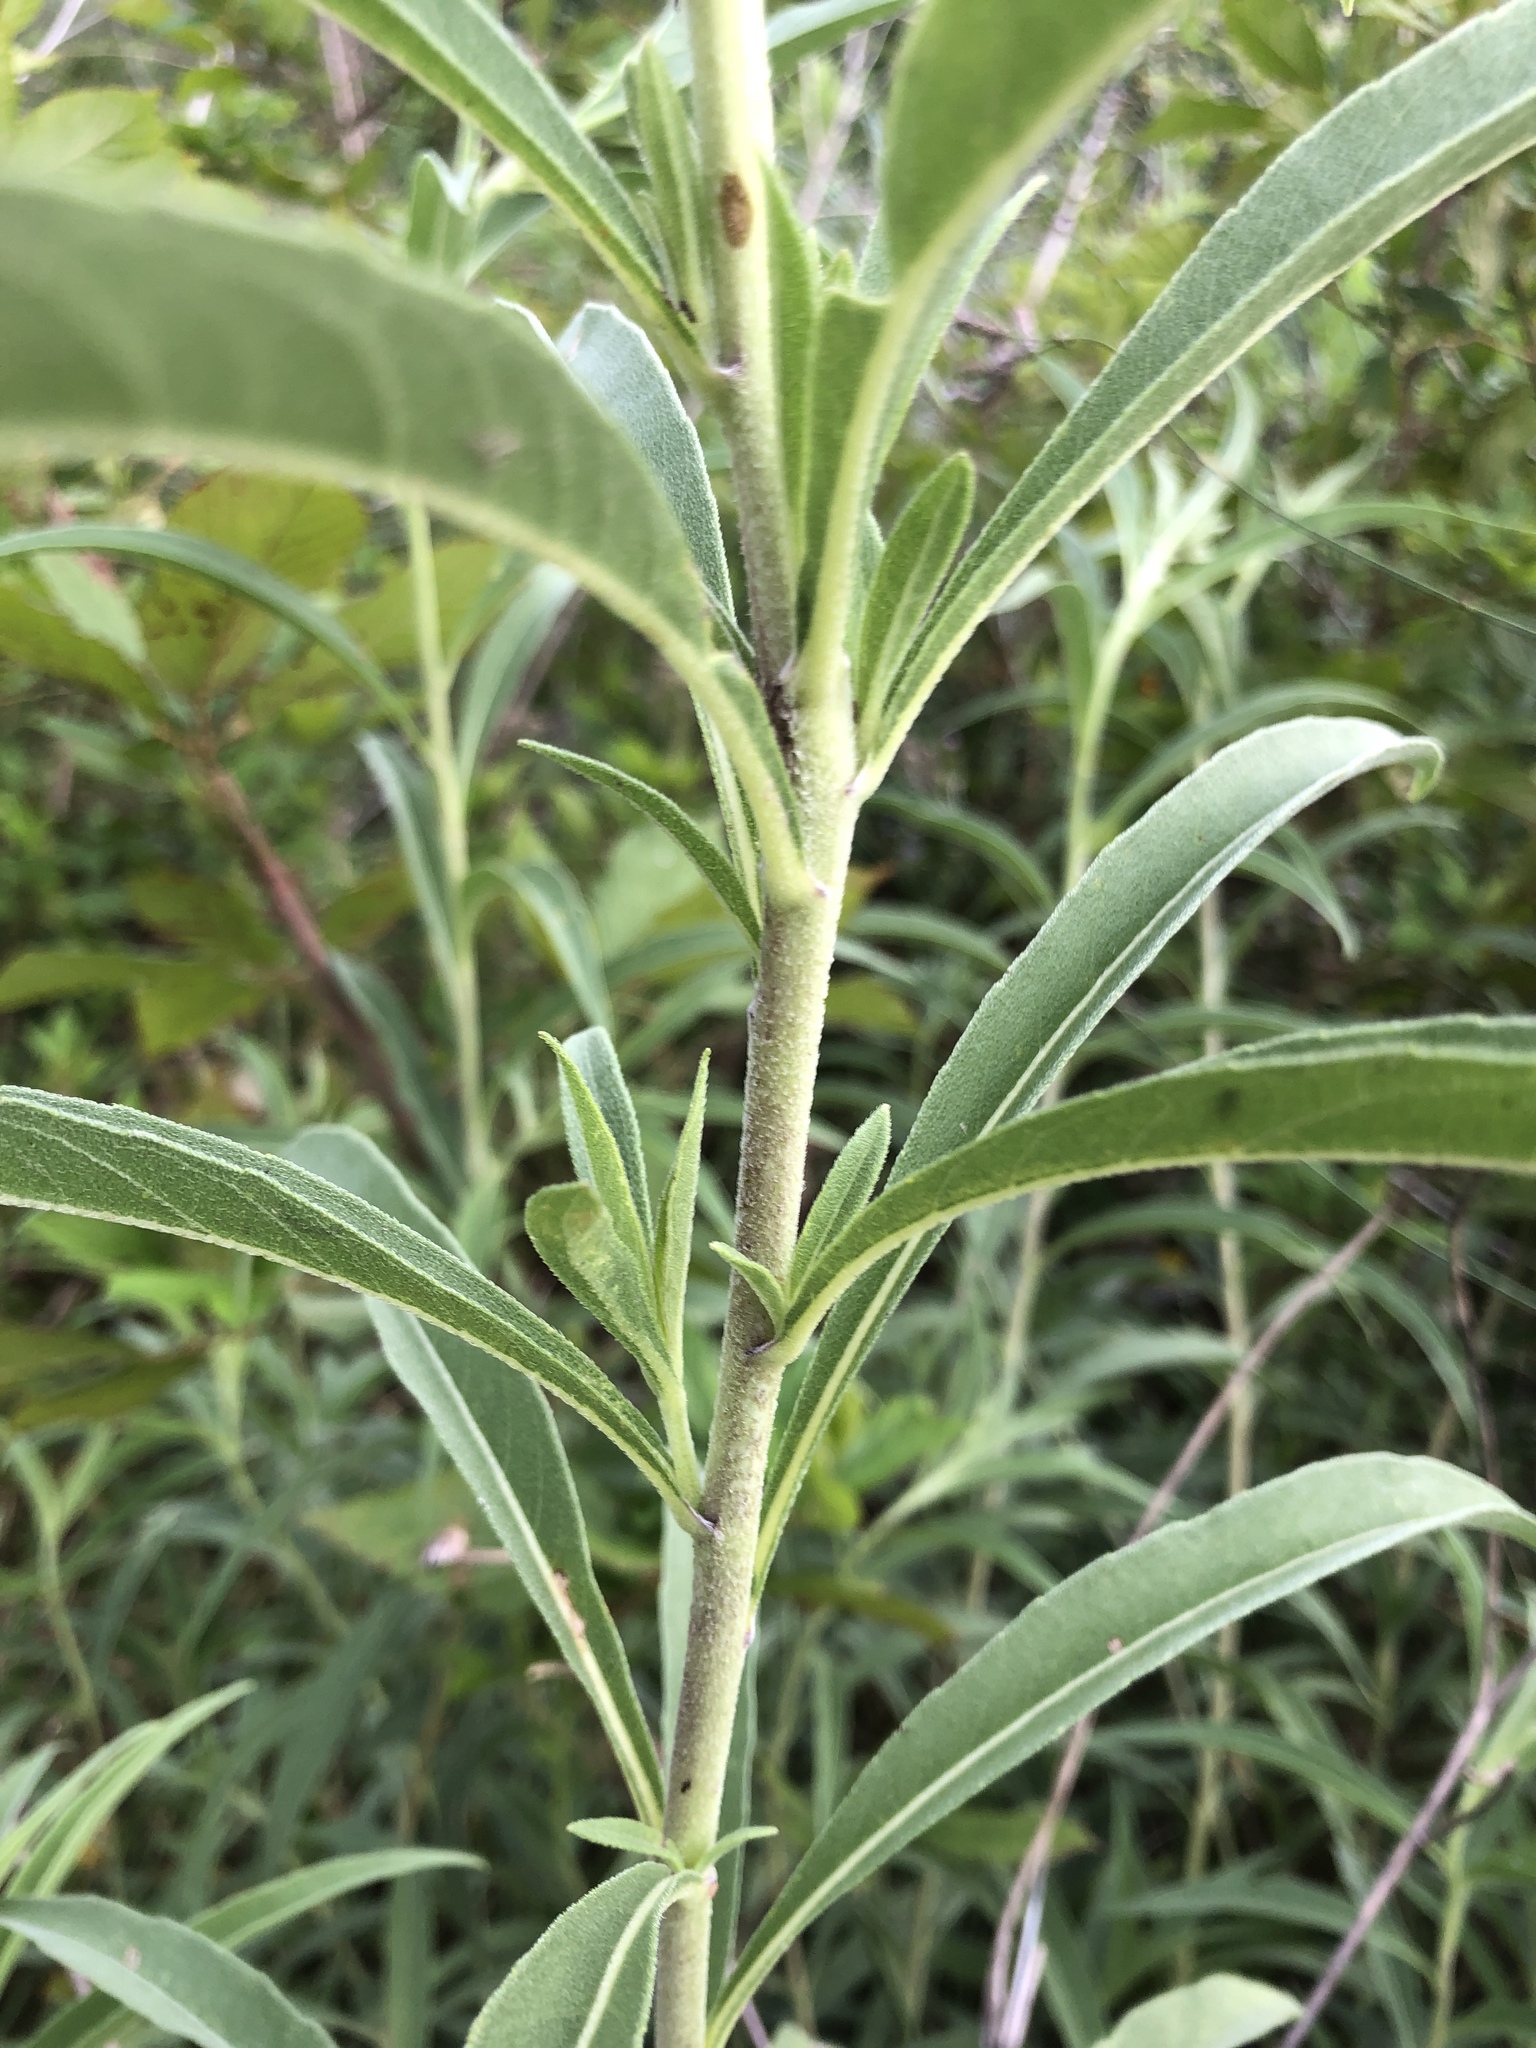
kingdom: Plantae
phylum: Tracheophyta
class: Magnoliopsida
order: Asterales
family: Asteraceae
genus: Helianthus
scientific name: Helianthus maximiliani
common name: Maximilian's sunflower
